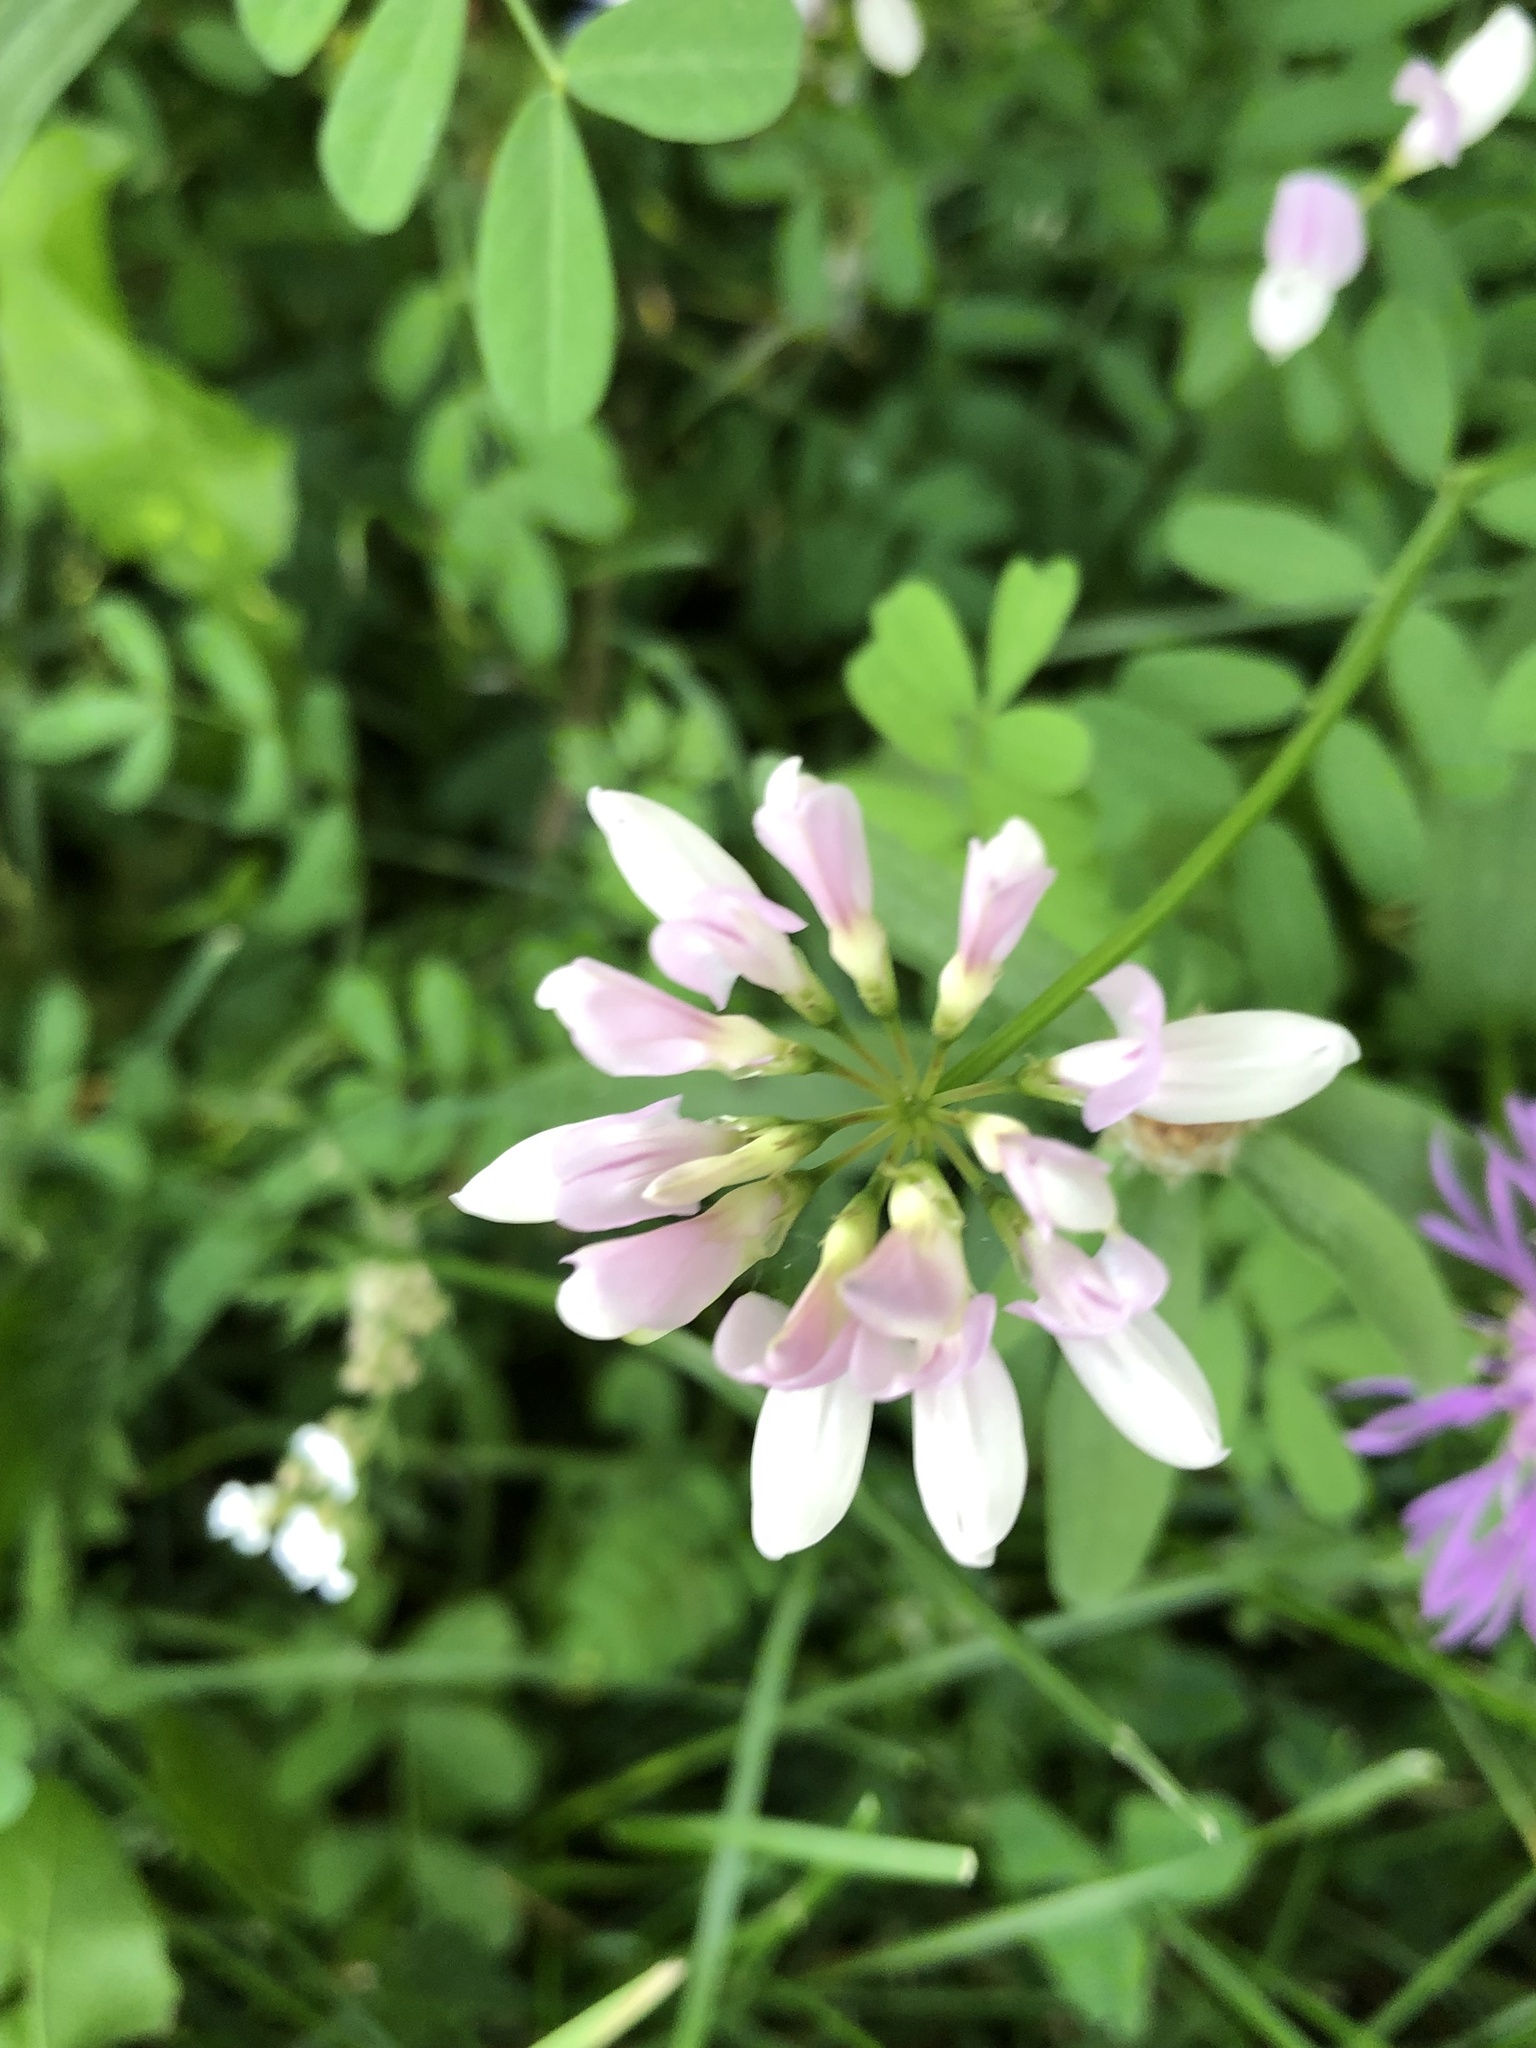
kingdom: Plantae
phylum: Tracheophyta
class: Magnoliopsida
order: Fabales
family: Fabaceae
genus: Coronilla
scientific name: Coronilla varia
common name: Crownvetch
